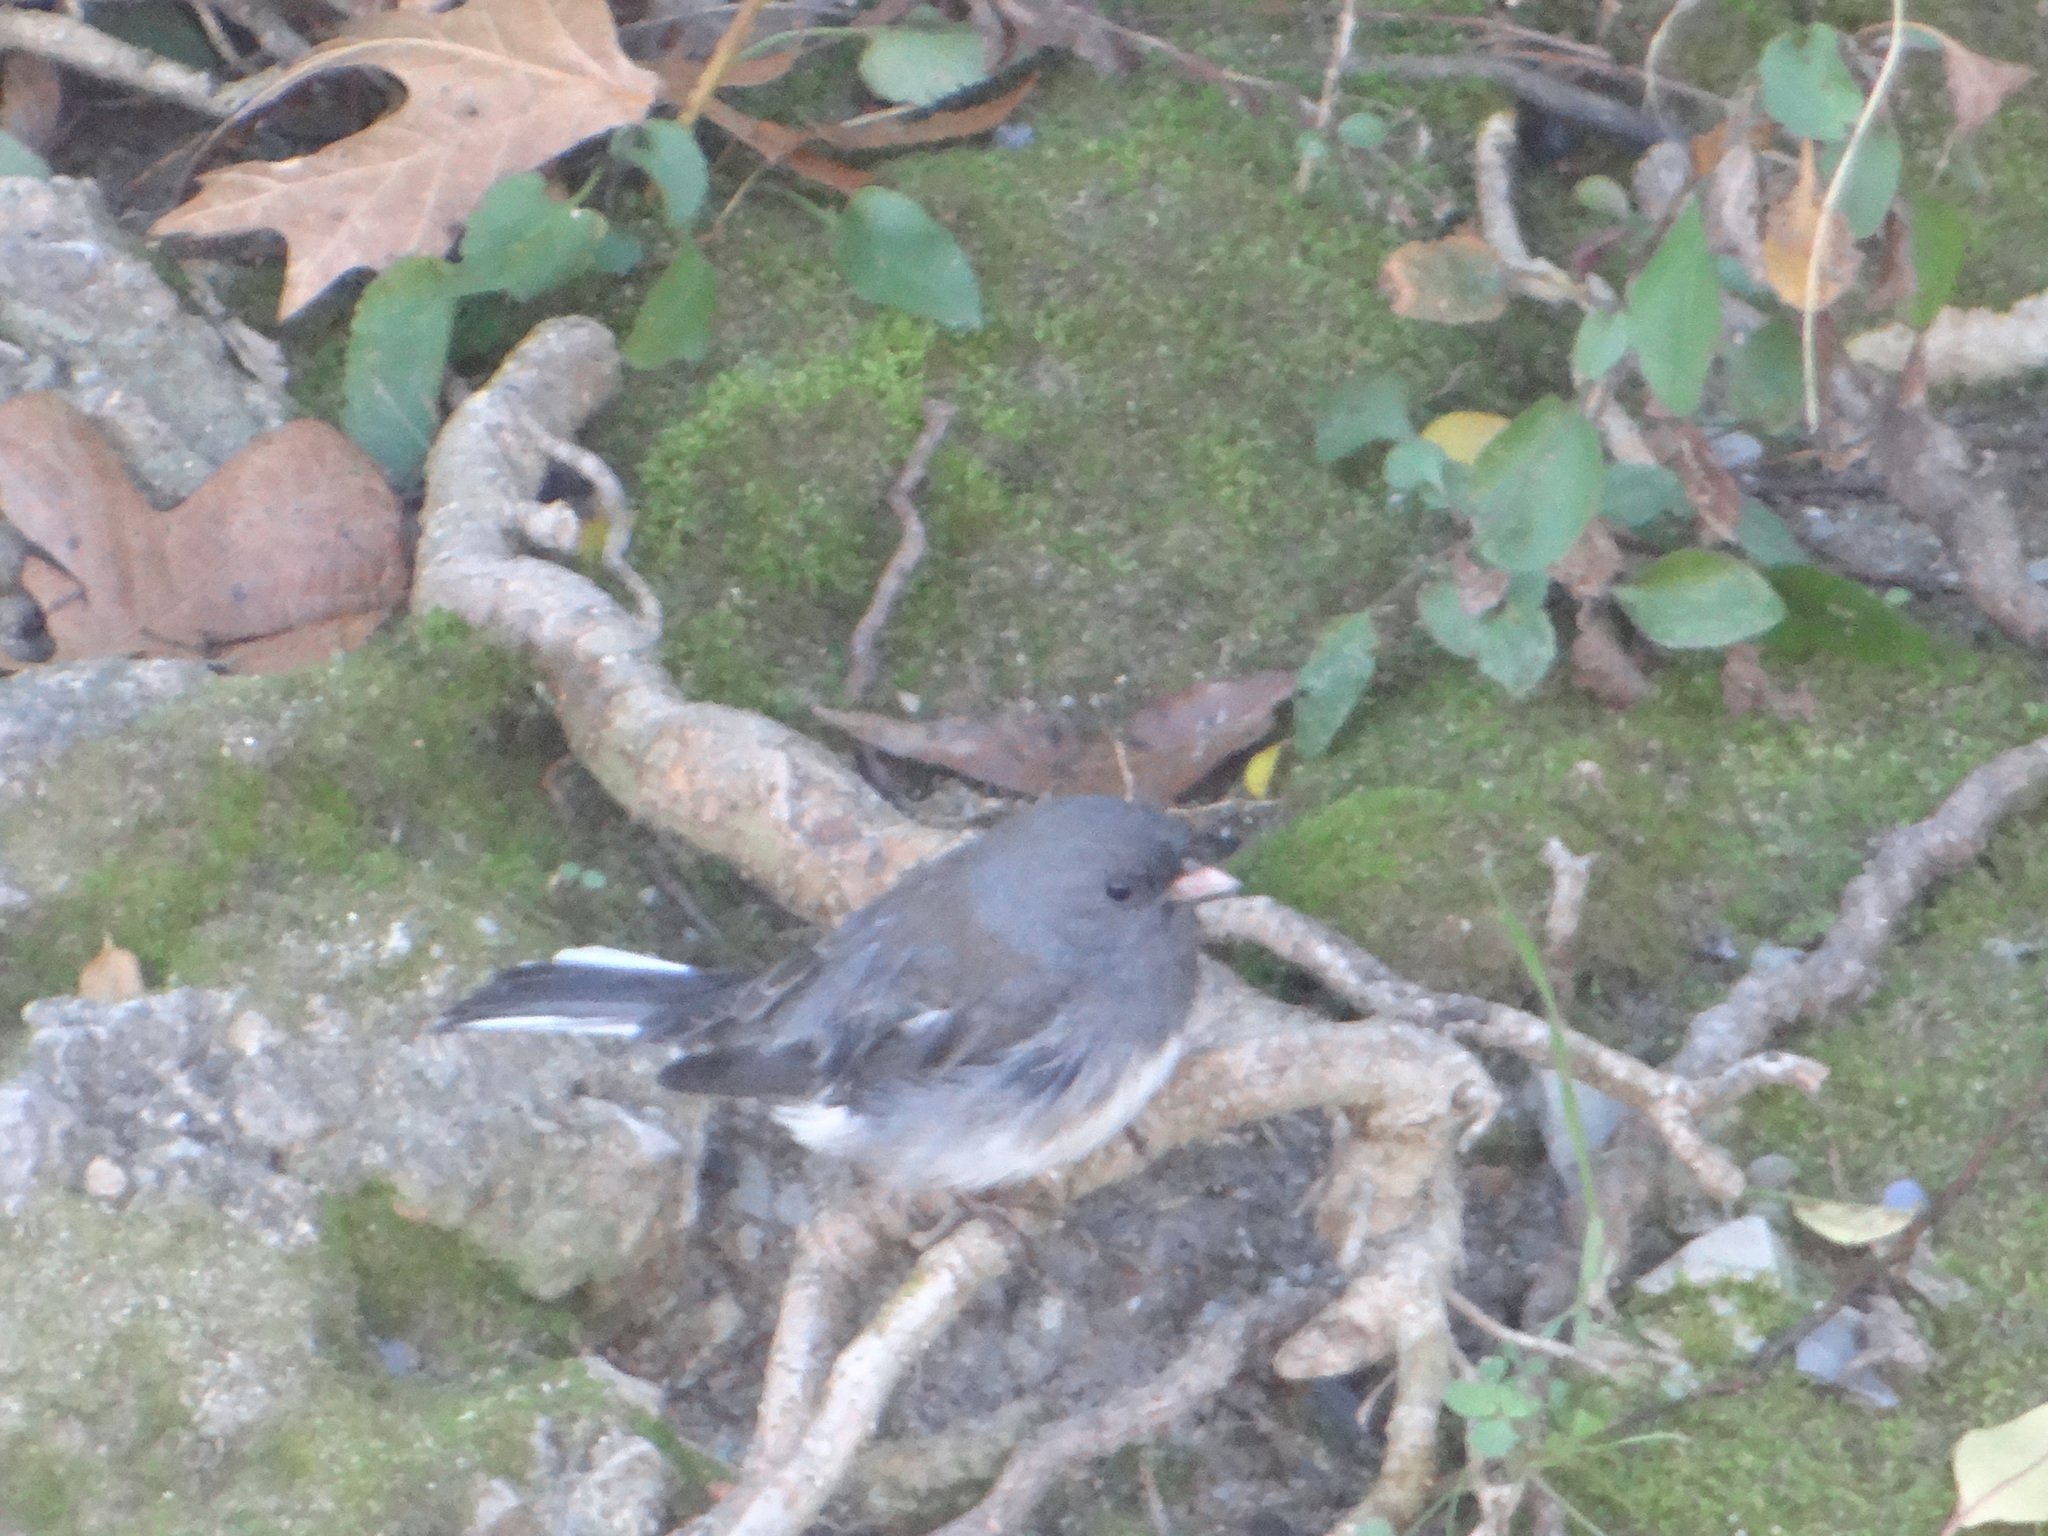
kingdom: Animalia
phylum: Chordata
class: Aves
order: Passeriformes
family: Passerellidae
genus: Junco
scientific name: Junco hyemalis
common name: Dark-eyed junco
